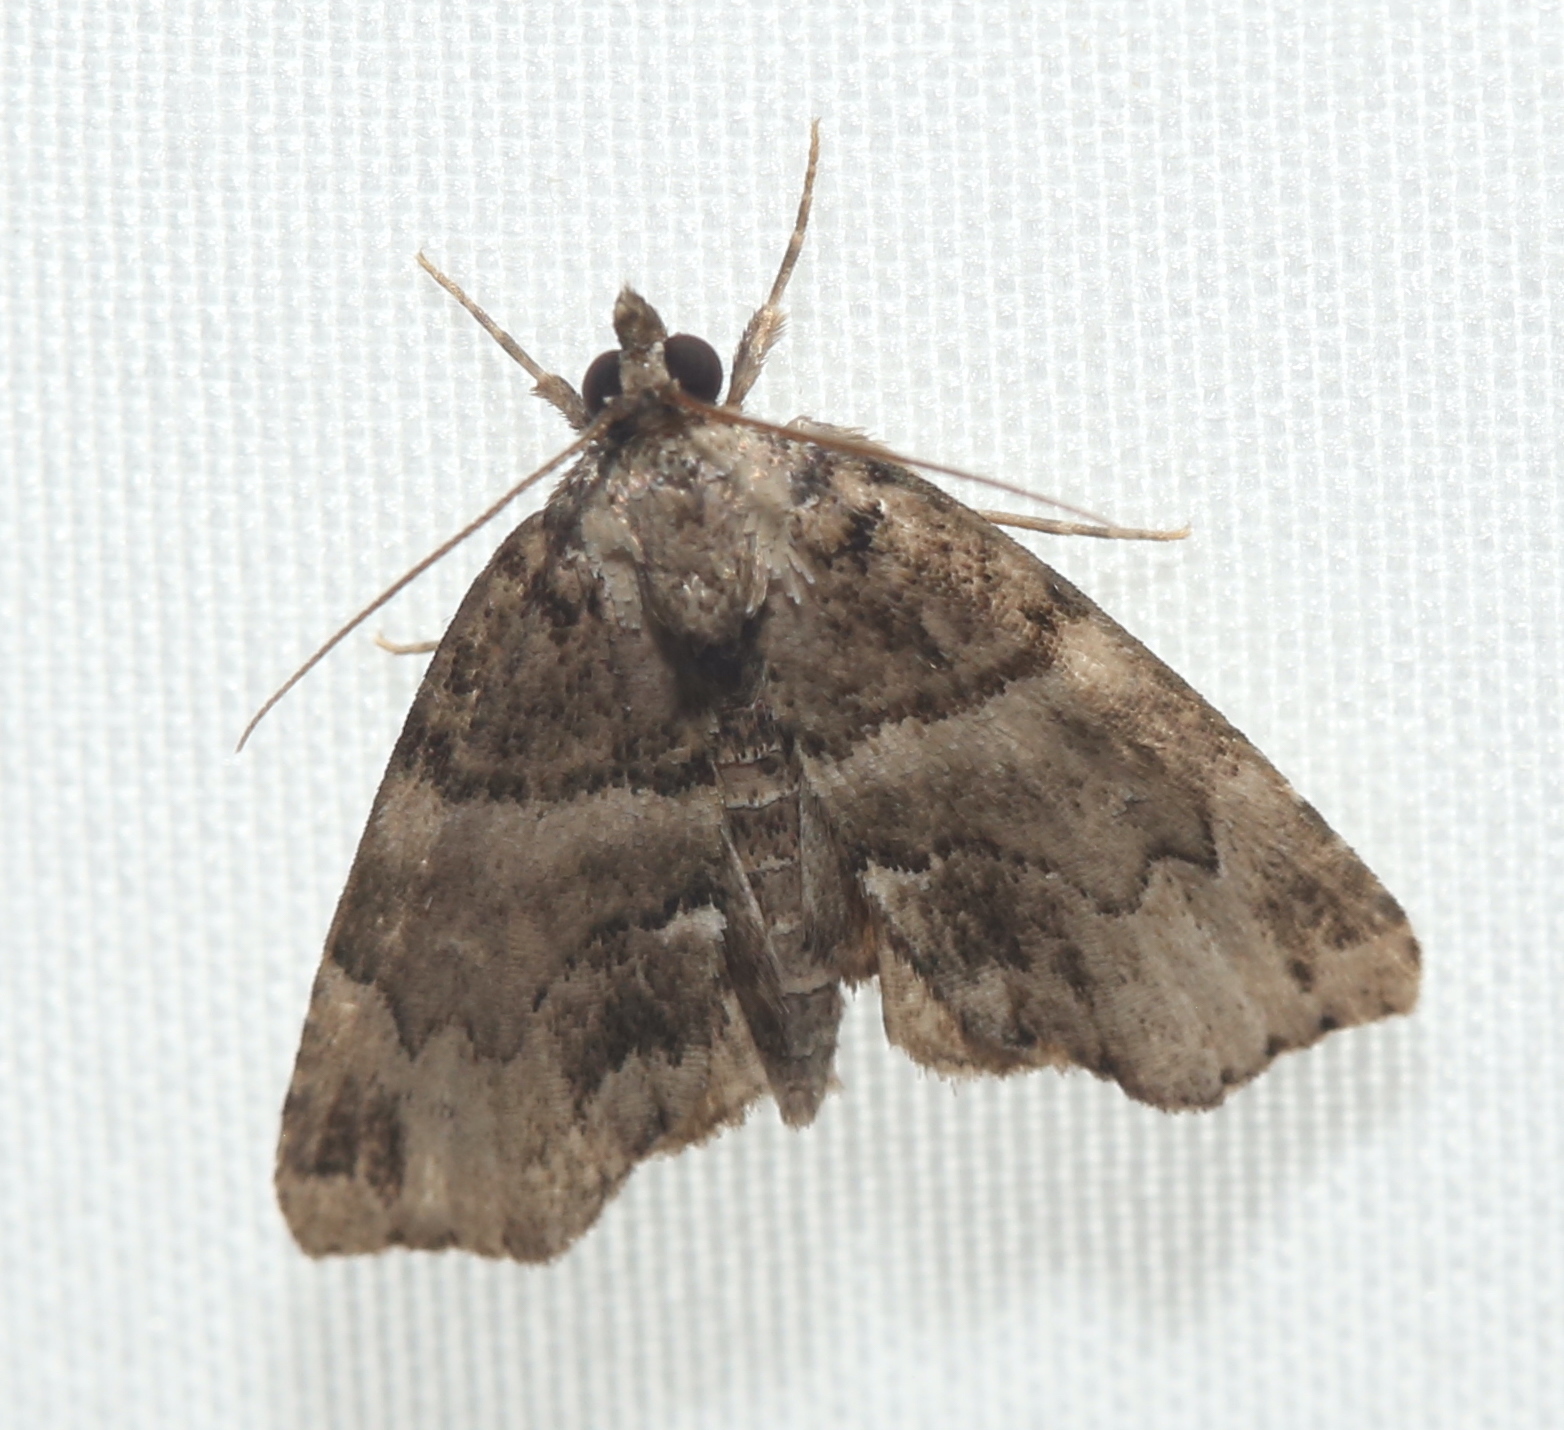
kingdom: Animalia
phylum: Arthropoda
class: Insecta
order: Lepidoptera
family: Erebidae
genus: Cutina
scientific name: Cutina distincta
